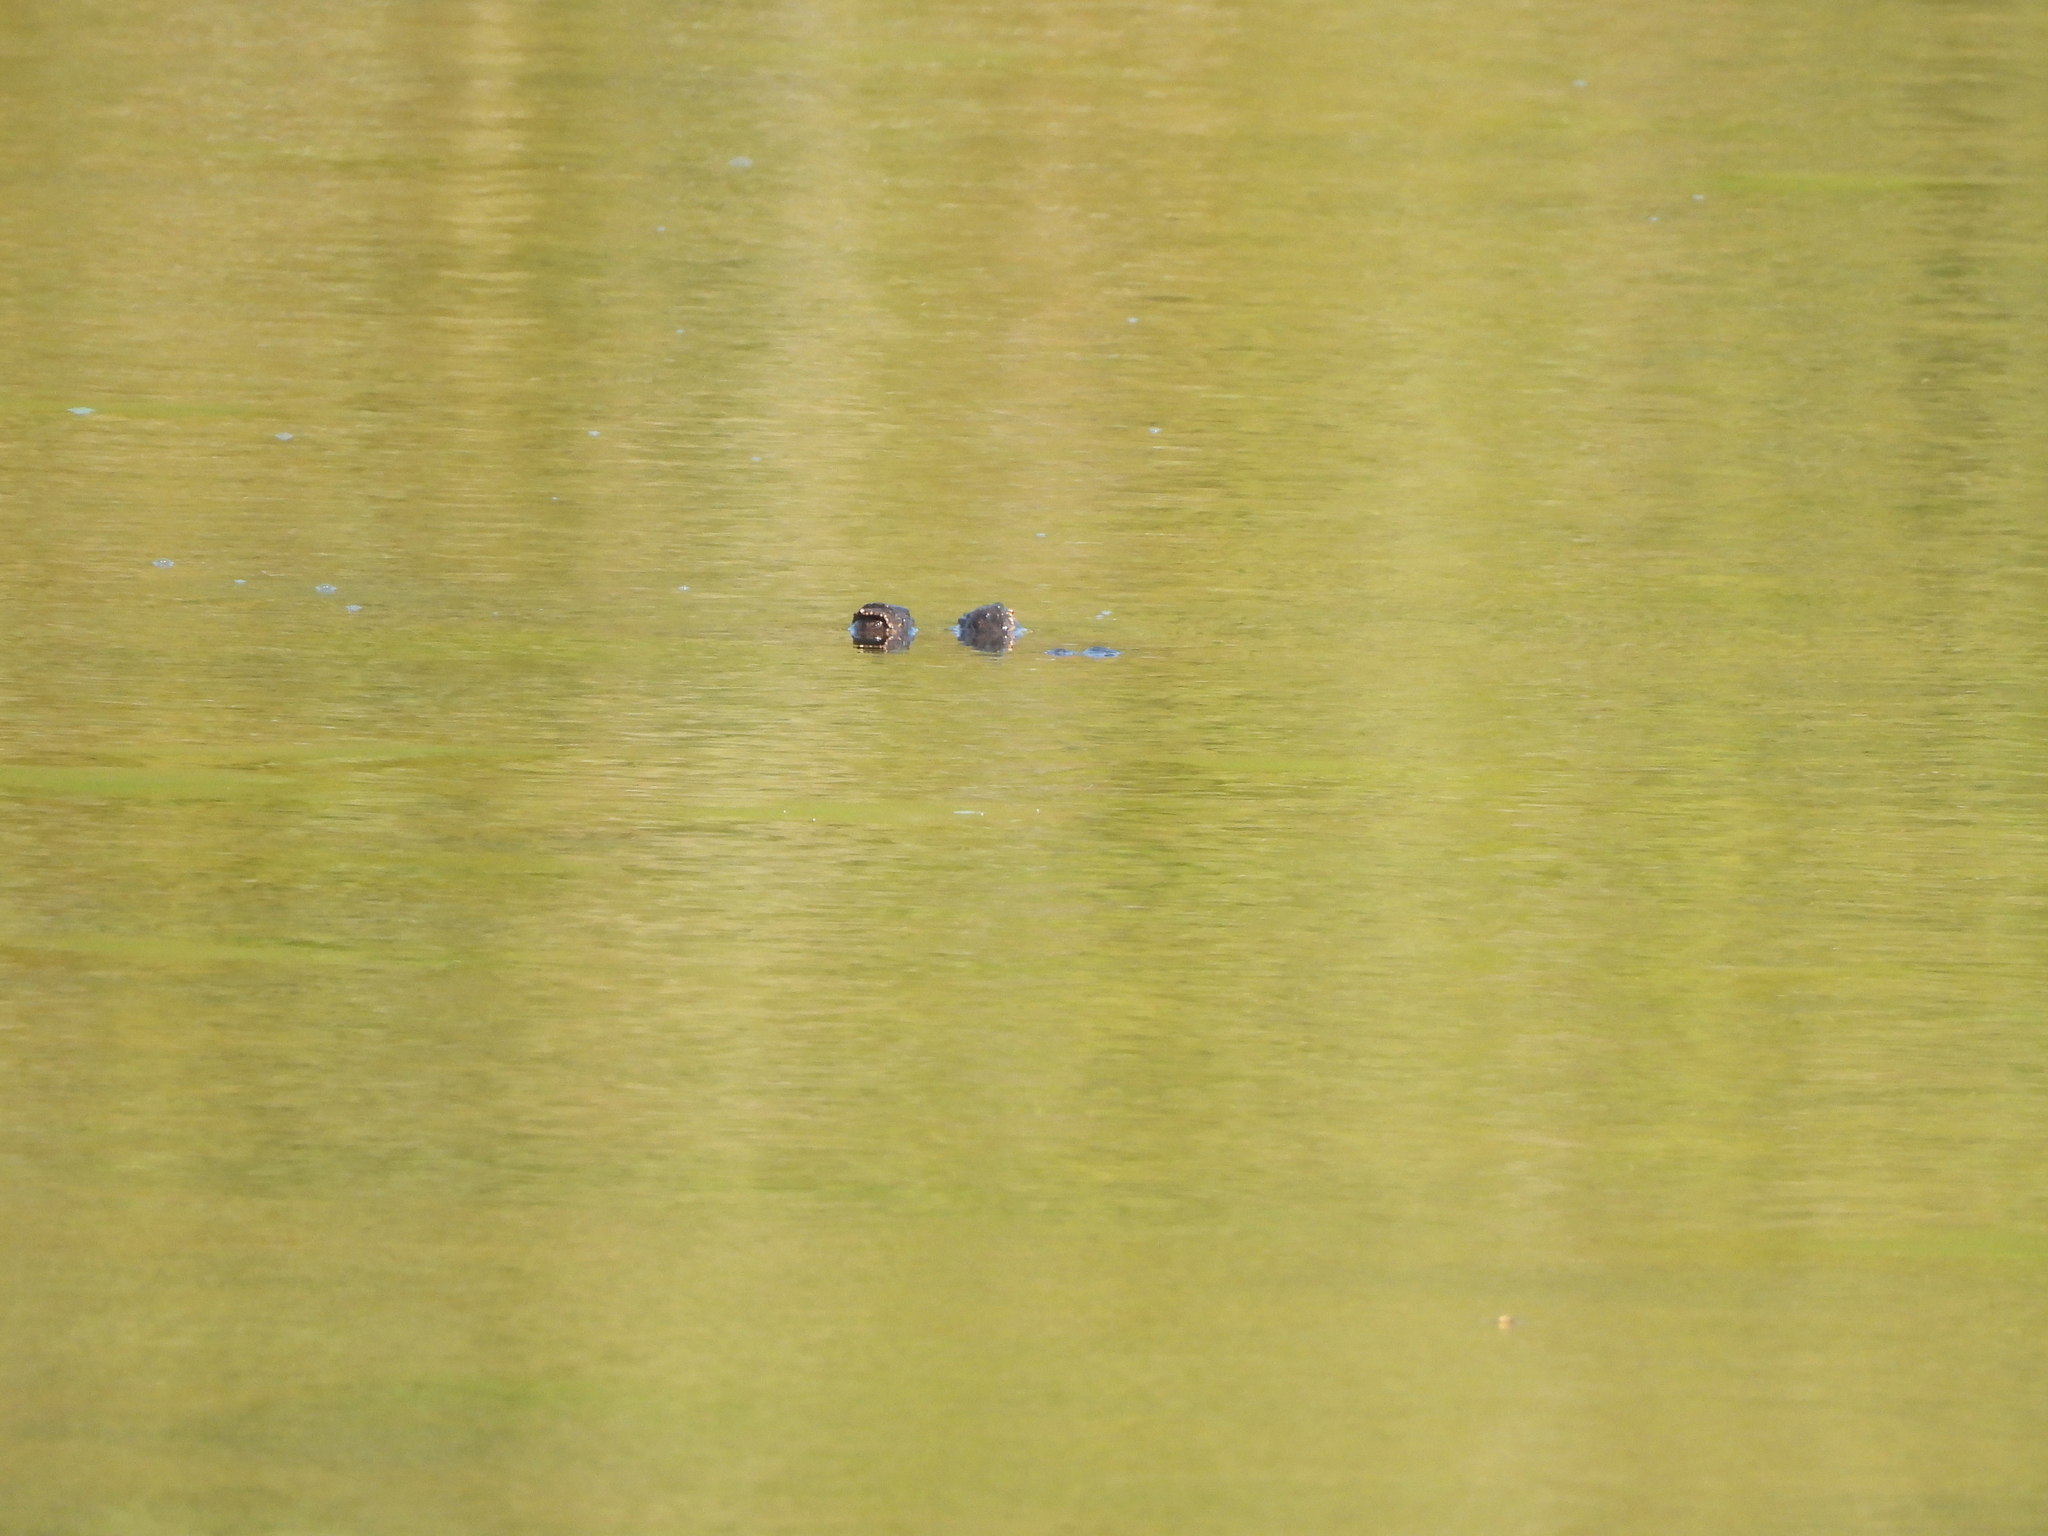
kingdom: Animalia
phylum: Chordata
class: Crocodylia
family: Alligatoridae
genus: Alligator
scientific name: Alligator mississippiensis
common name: American alligator
